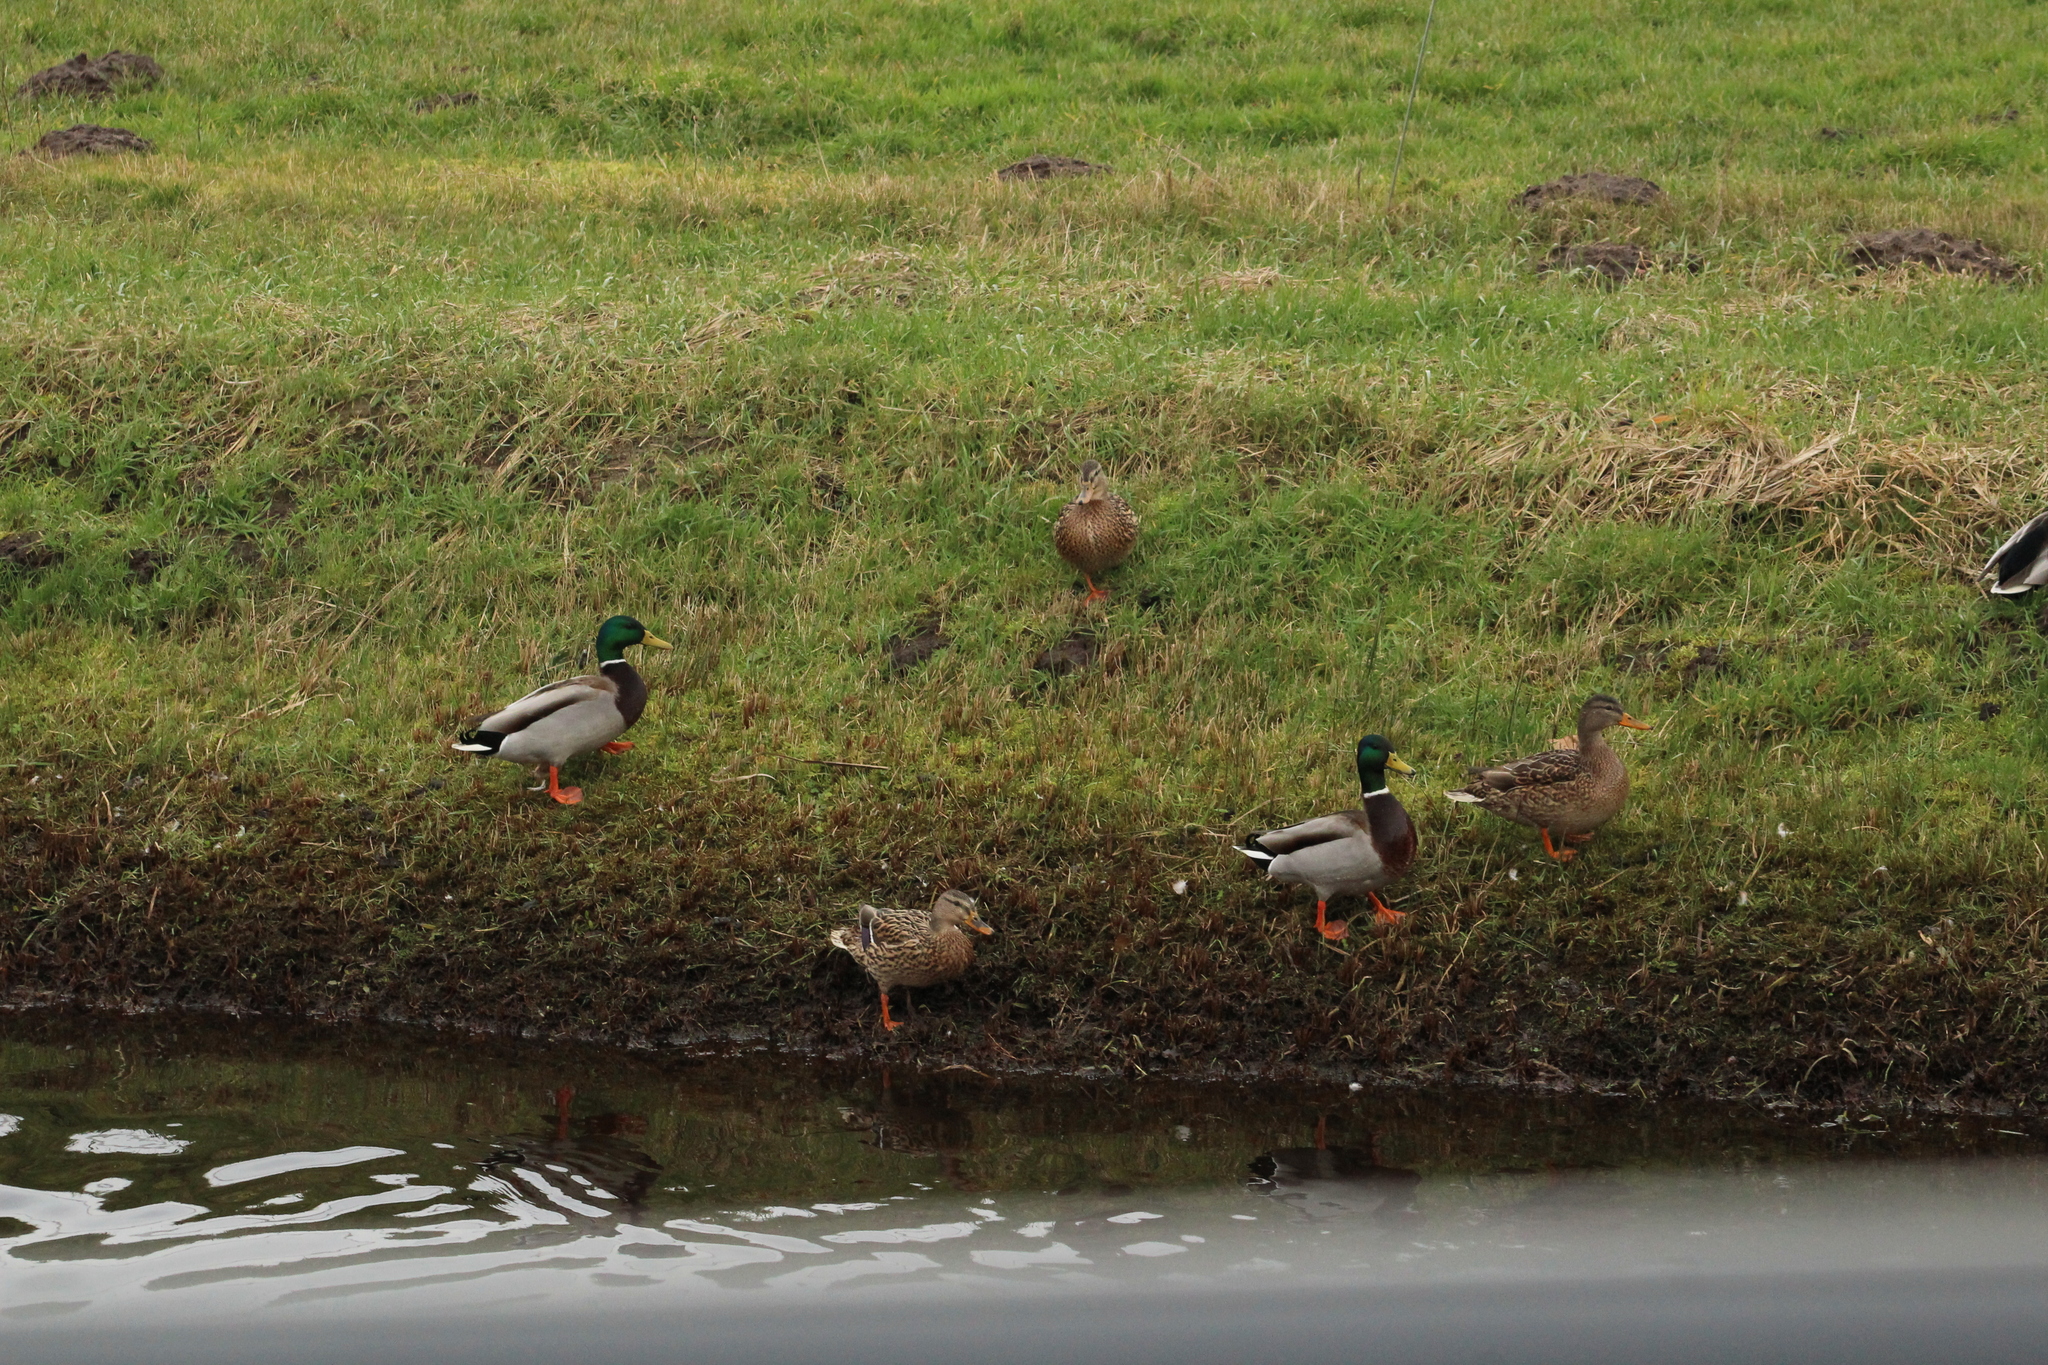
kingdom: Animalia
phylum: Chordata
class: Aves
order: Anseriformes
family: Anatidae
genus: Anas
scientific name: Anas platyrhynchos
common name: Mallard
